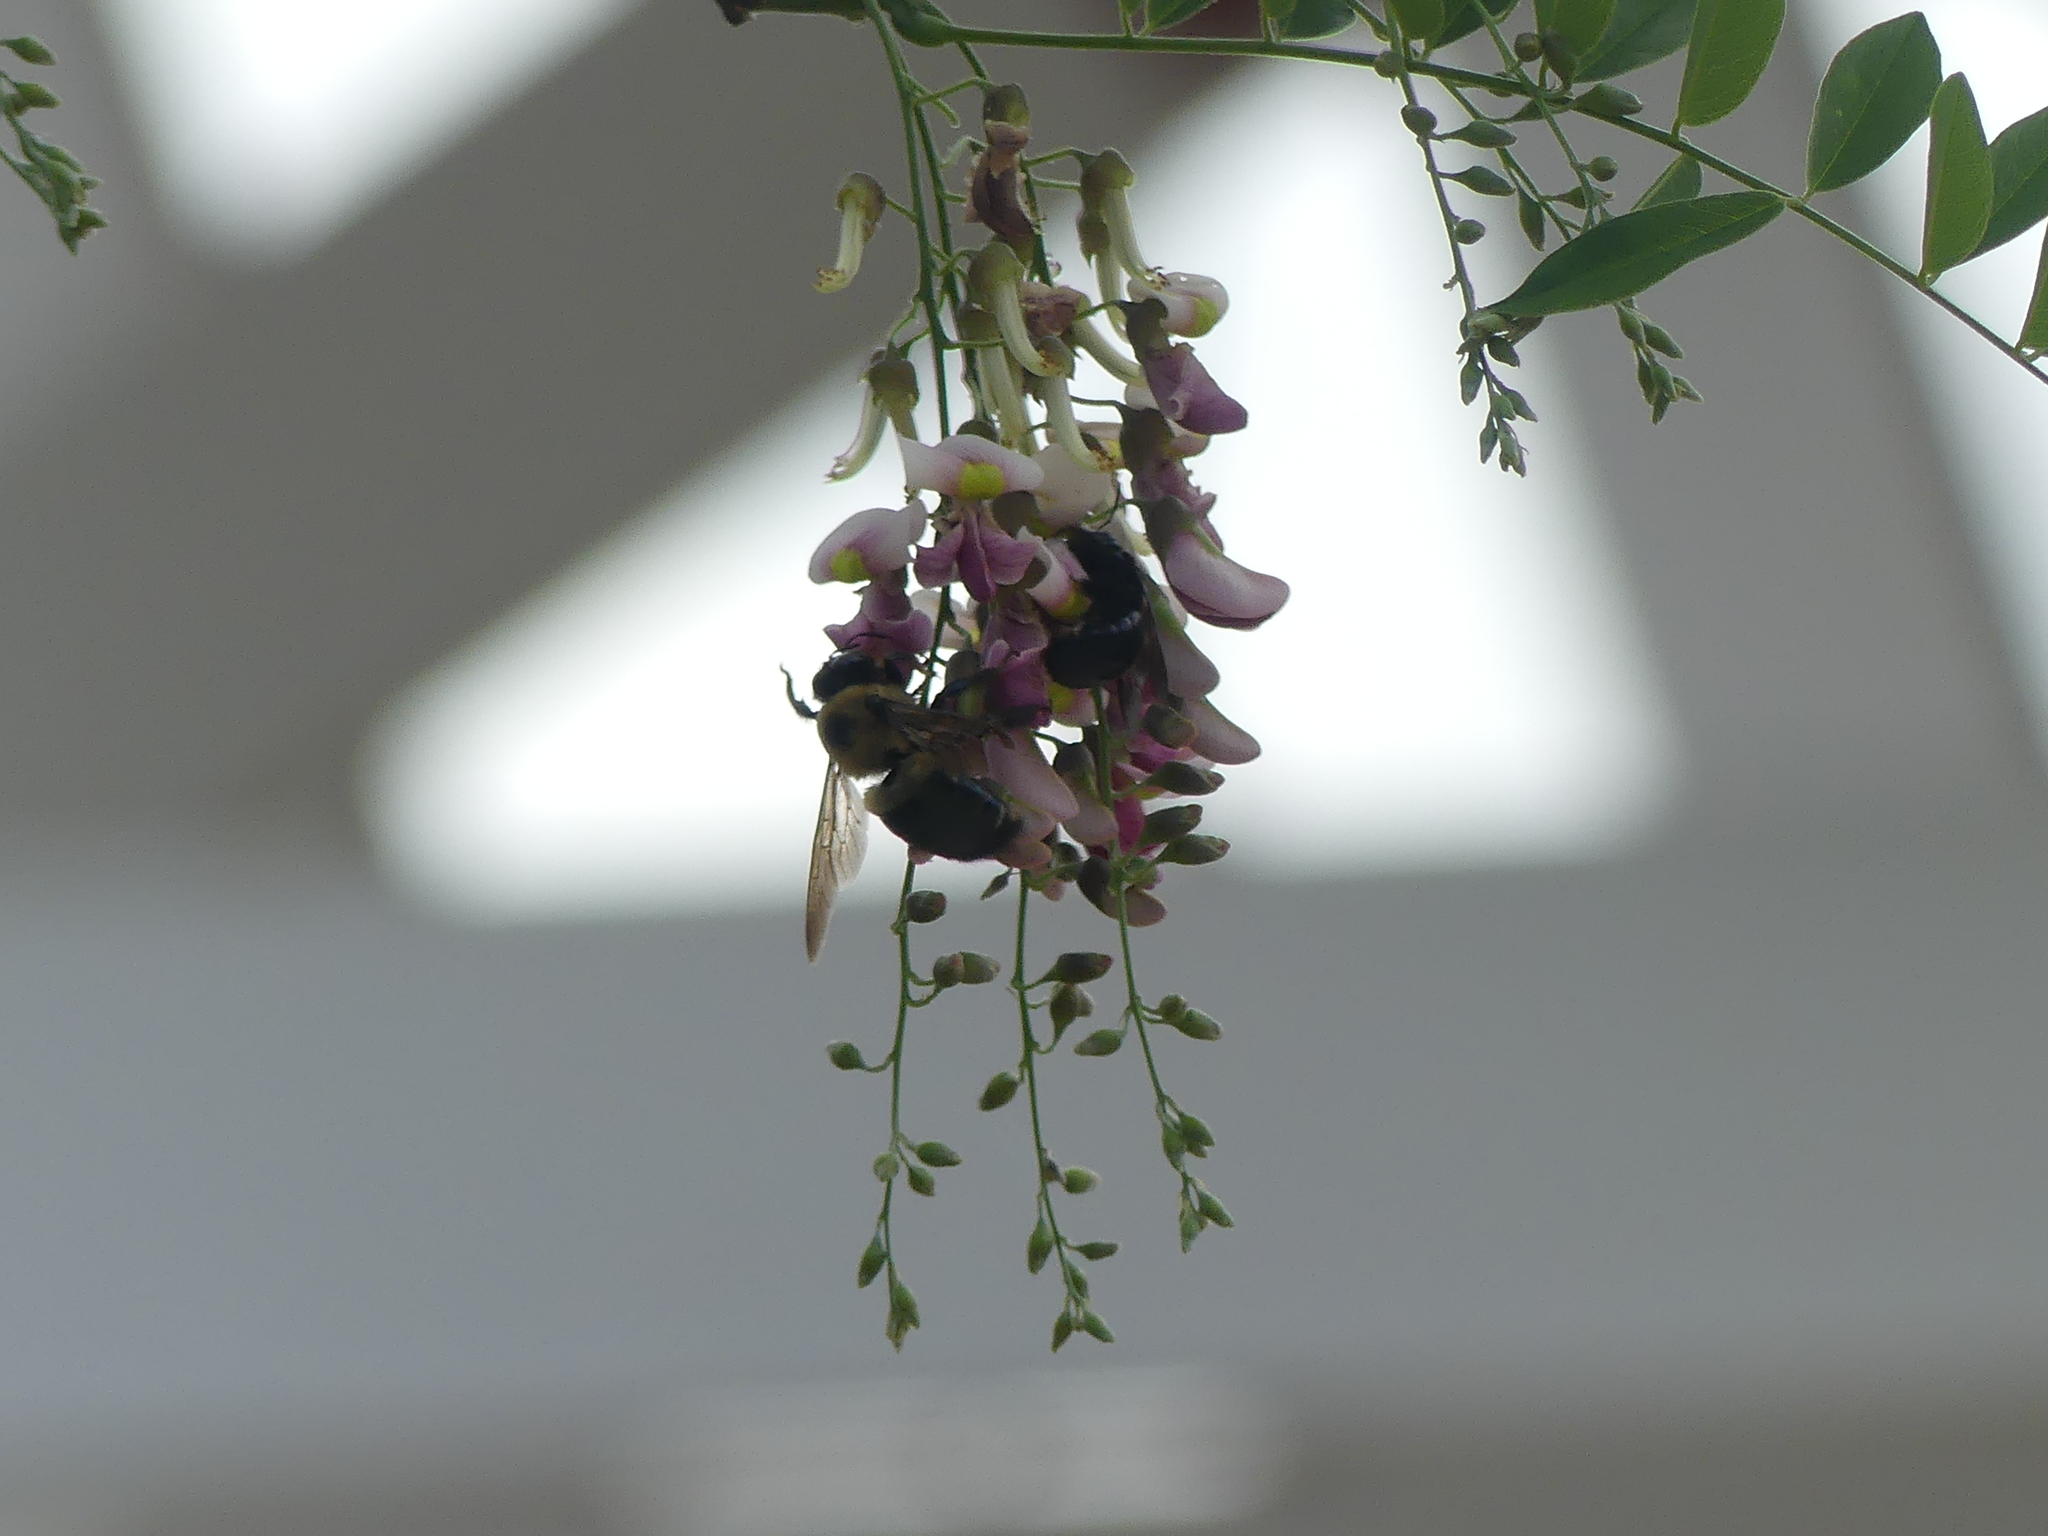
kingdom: Animalia
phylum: Arthropoda
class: Insecta
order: Hymenoptera
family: Apidae
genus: Xylocopa
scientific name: Xylocopa virginica
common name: Carpenter bee
